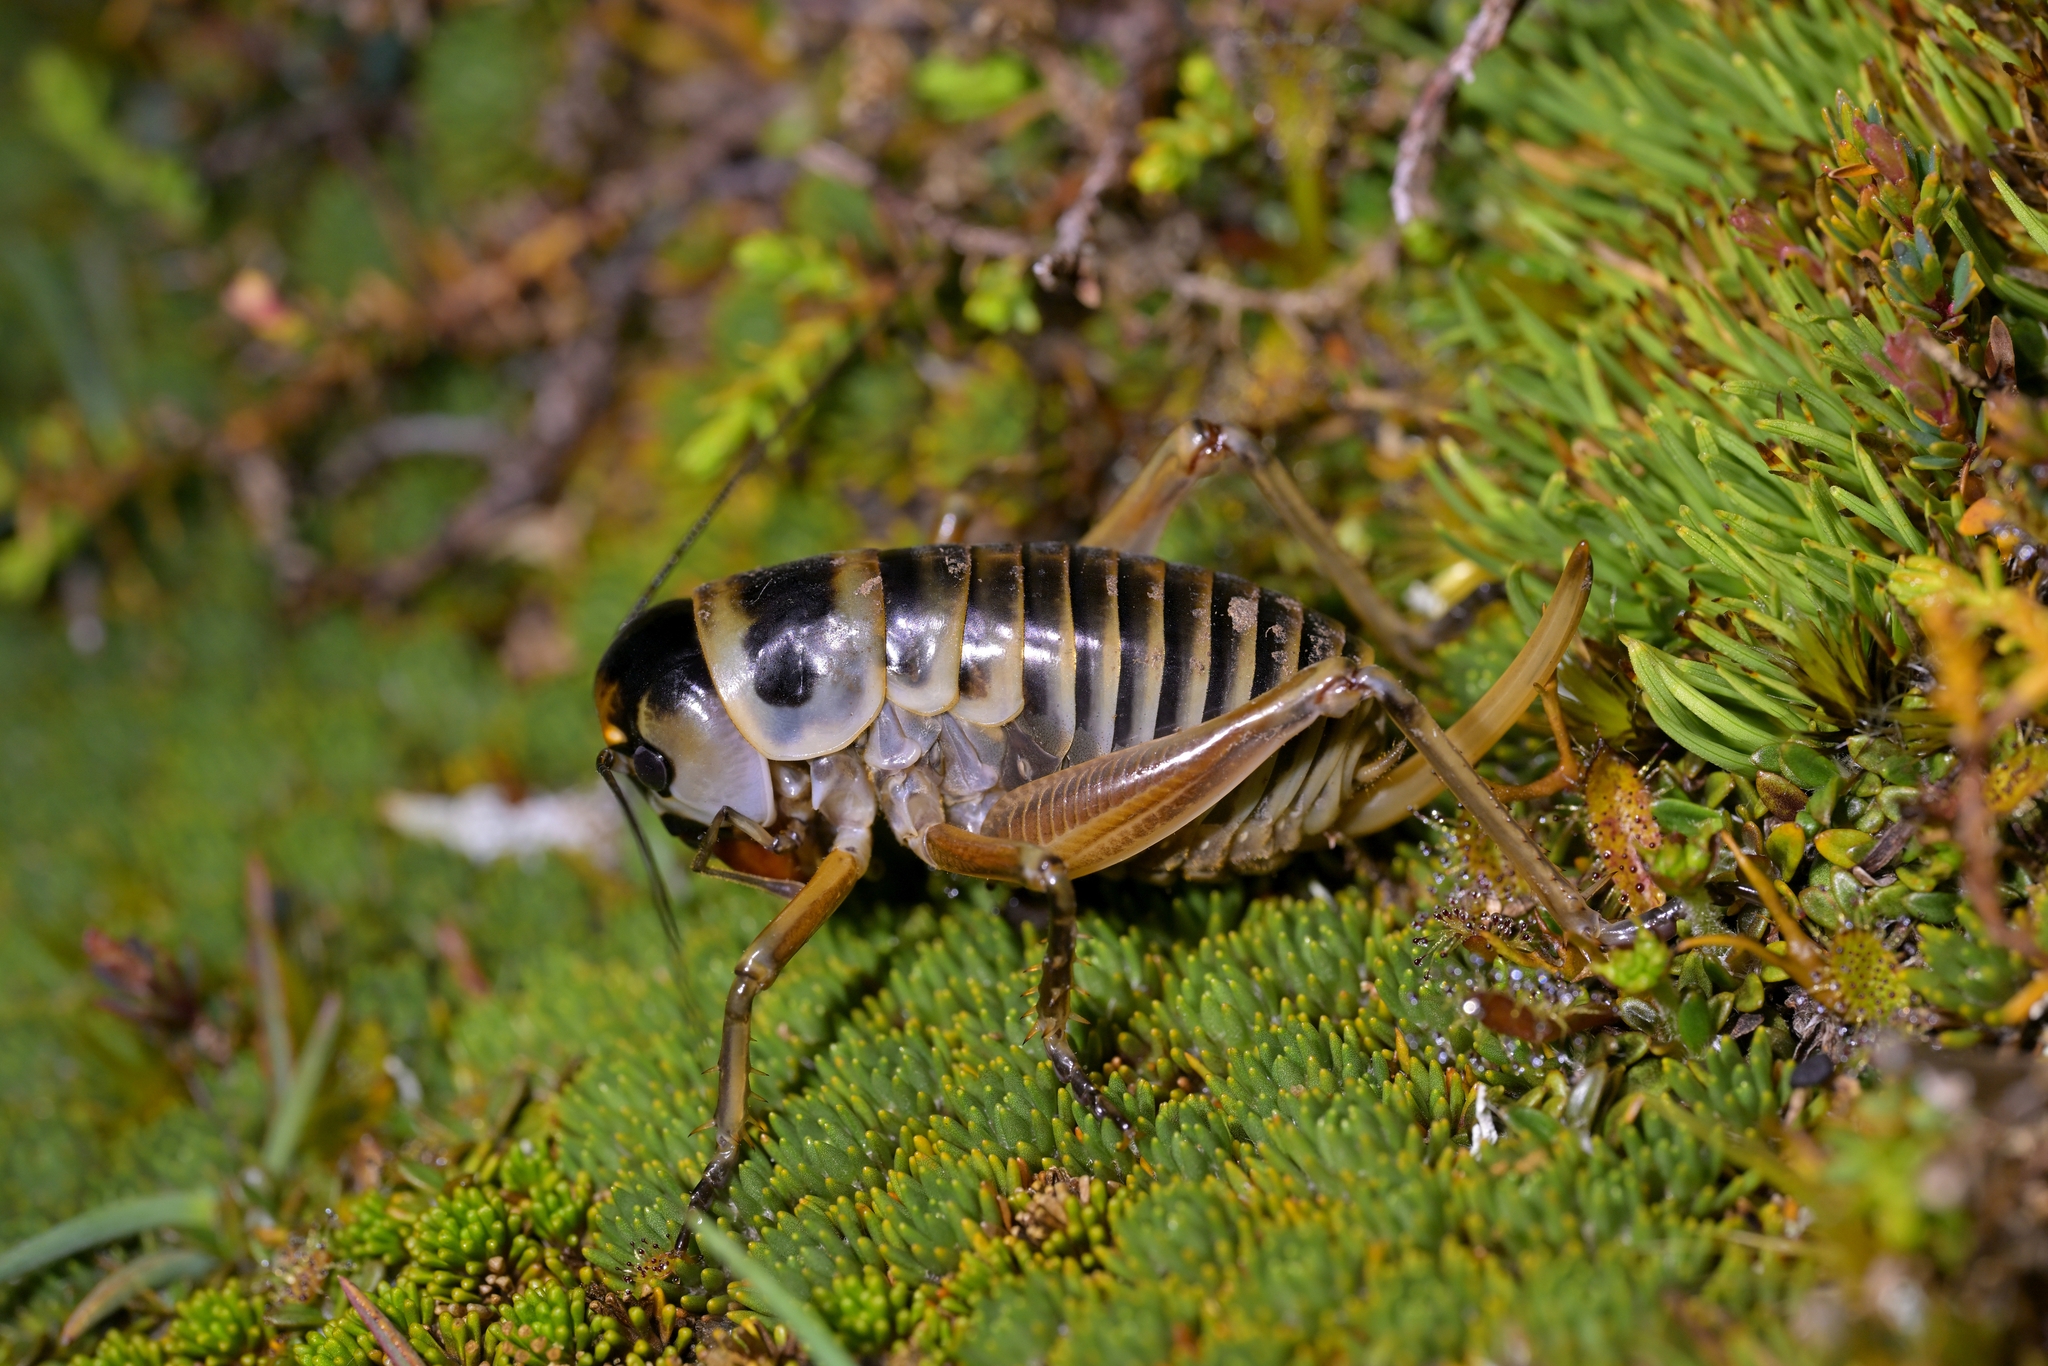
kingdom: Animalia
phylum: Arthropoda
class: Insecta
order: Orthoptera
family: Anostostomatidae
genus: Hemiandrus
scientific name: Hemiandrus focalis
